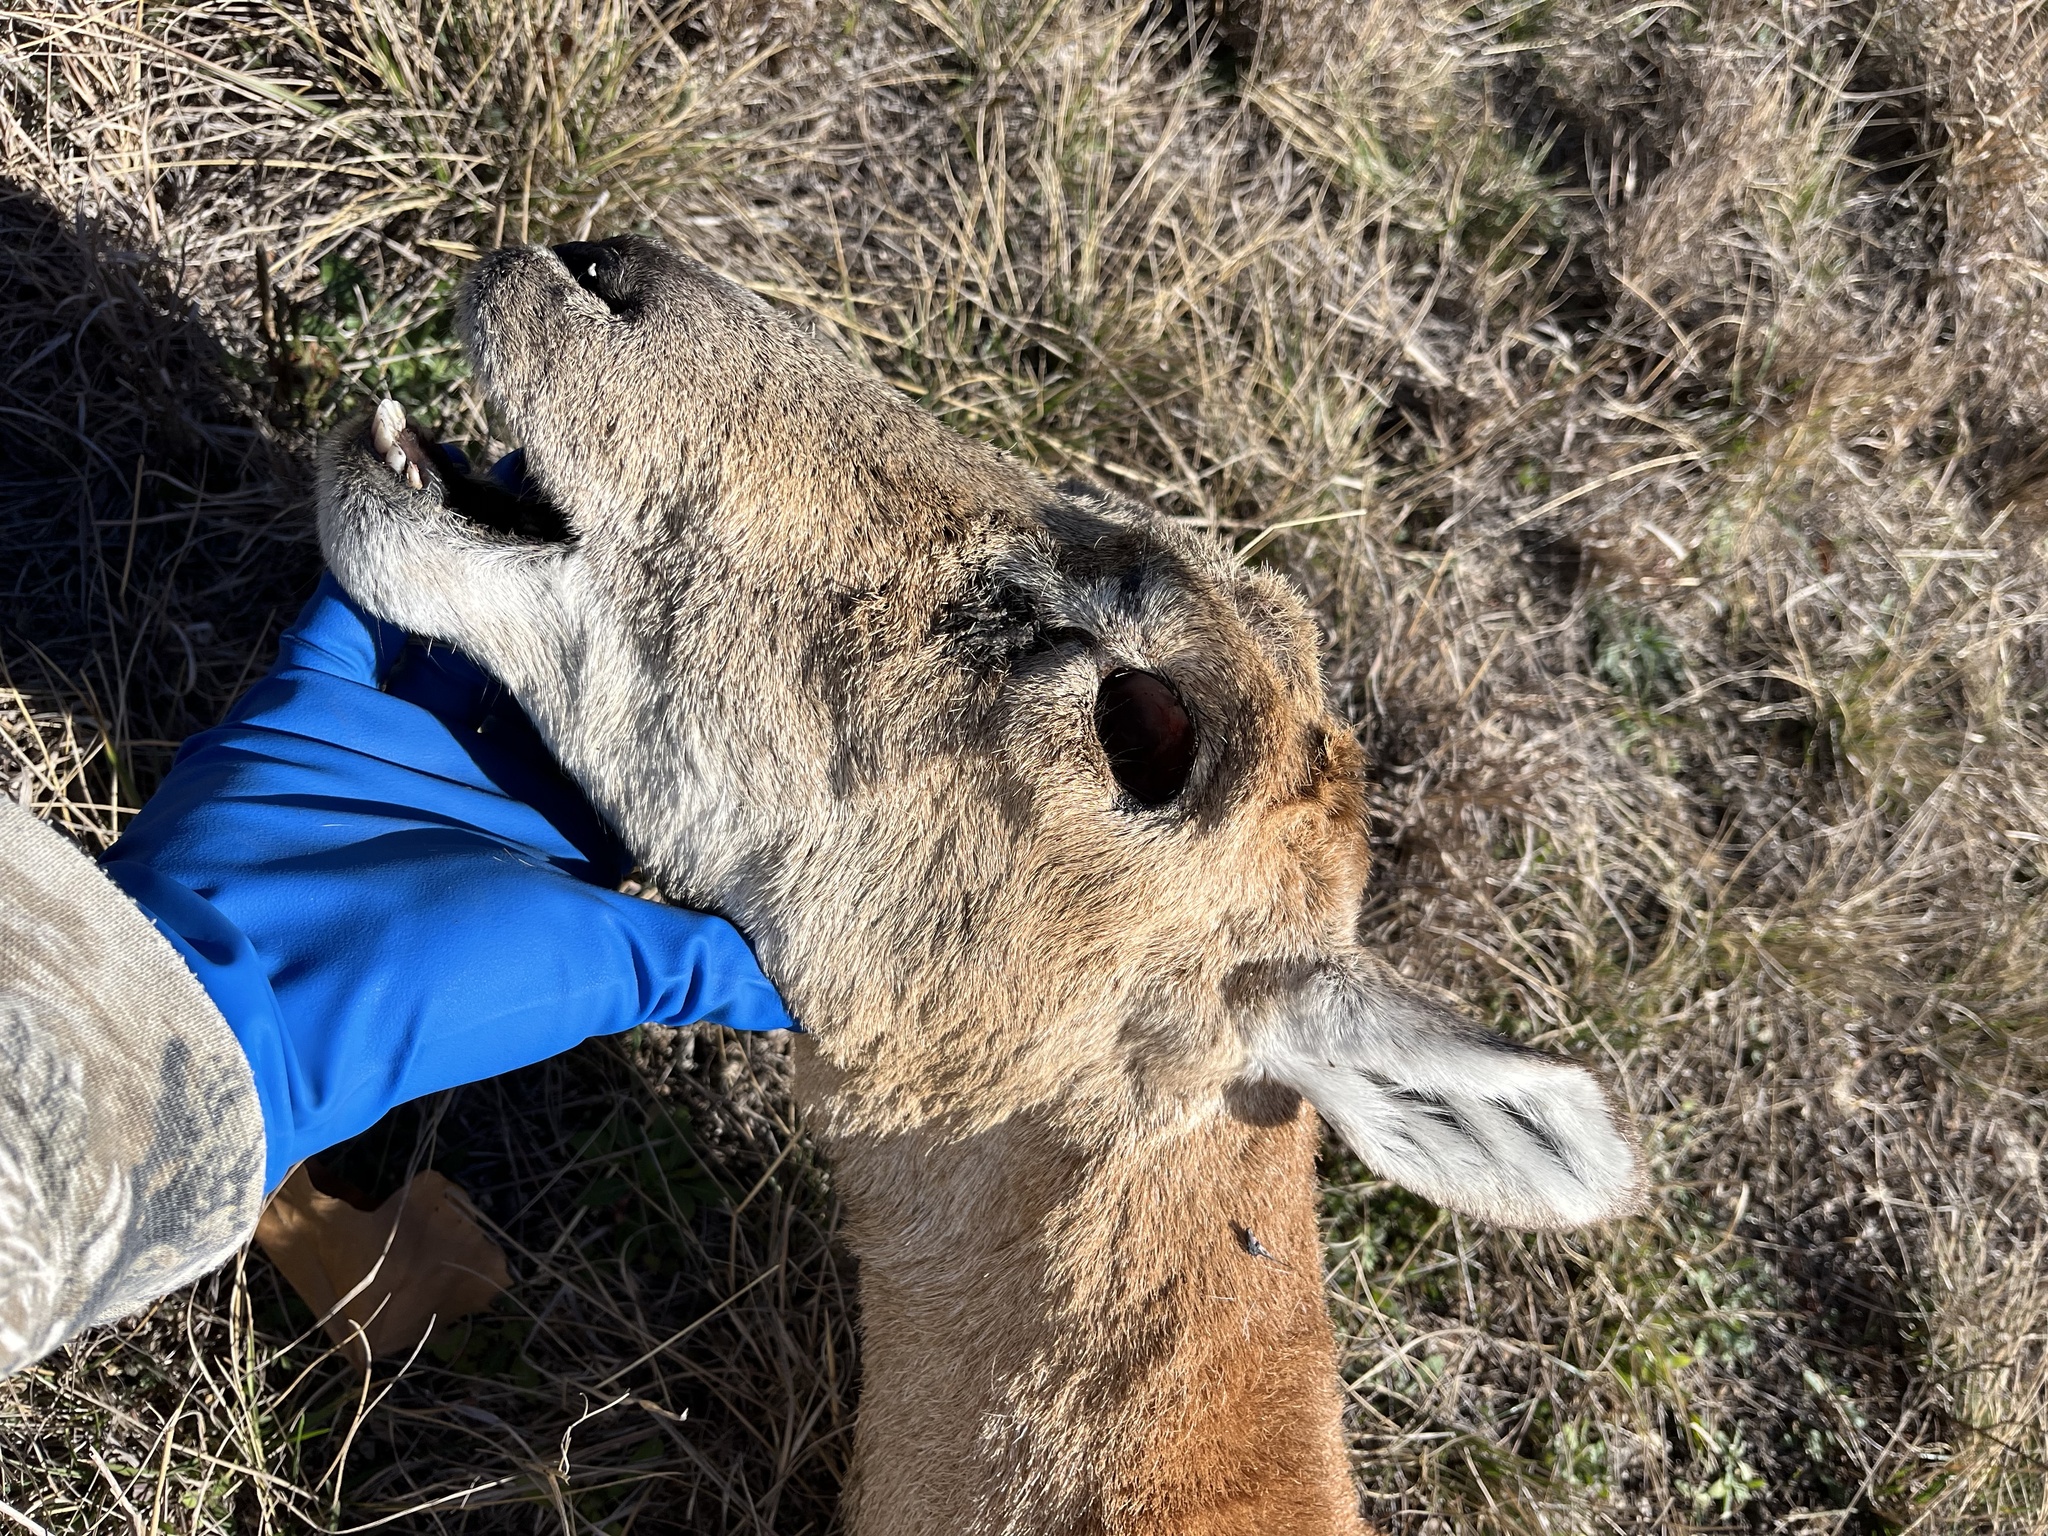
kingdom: Animalia
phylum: Chordata
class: Mammalia
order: Artiodactyla
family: Bovidae
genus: Ovis
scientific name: Ovis aries
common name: Domestic sheep
